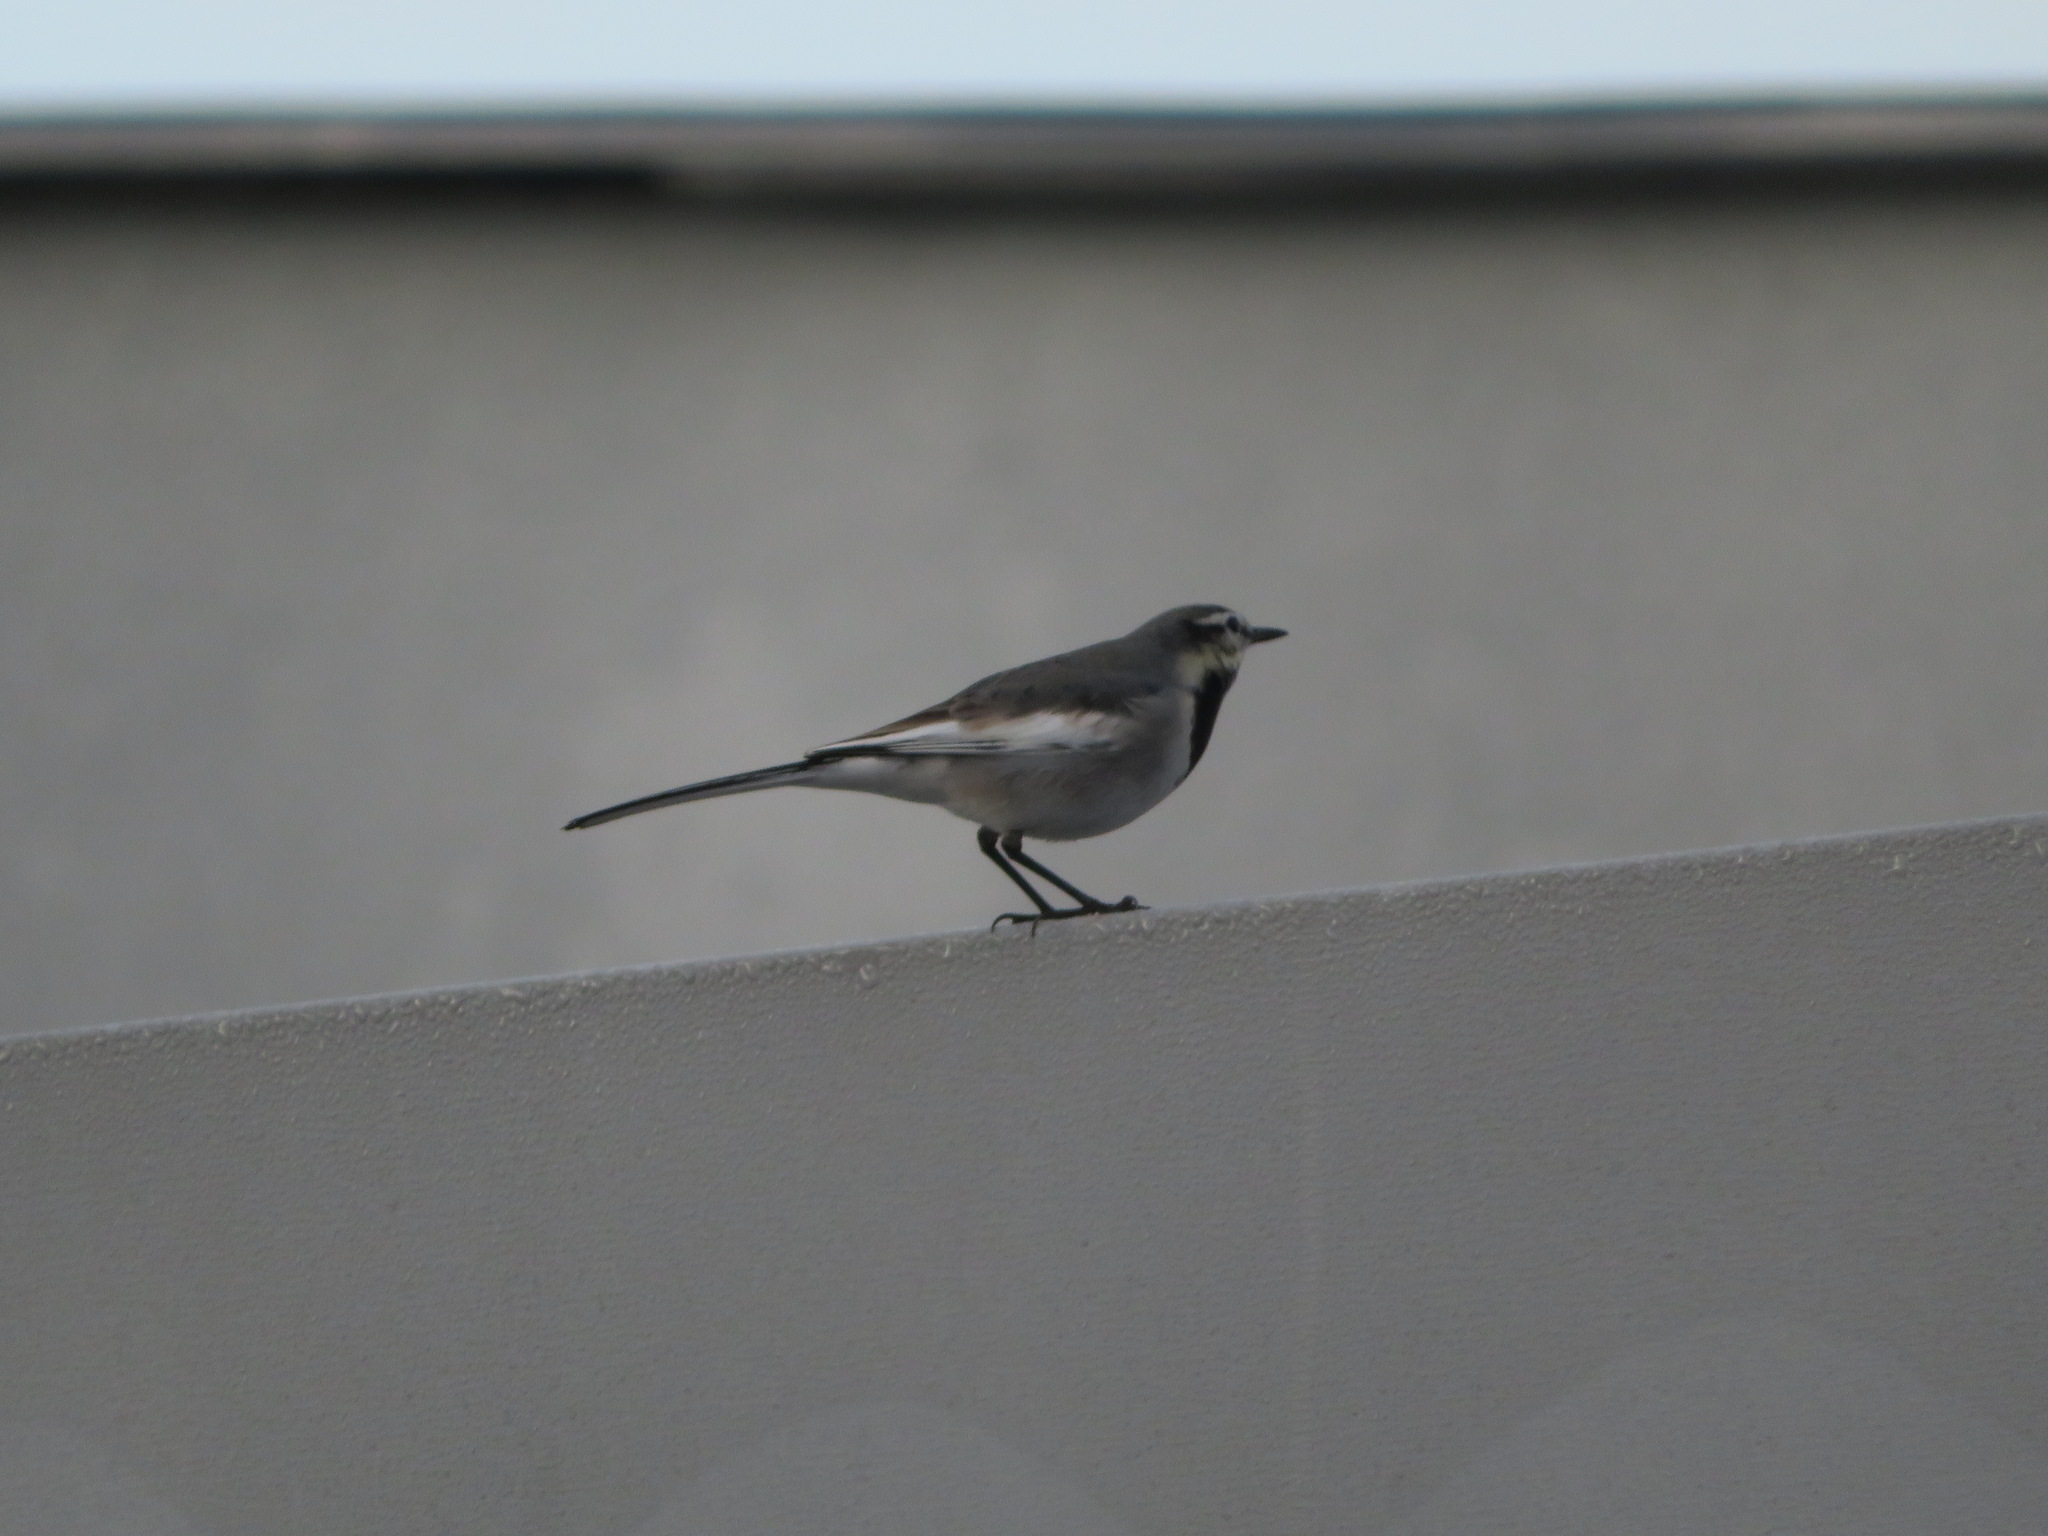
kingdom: Animalia
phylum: Chordata
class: Aves
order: Passeriformes
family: Motacillidae
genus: Motacilla
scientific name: Motacilla alba
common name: White wagtail
